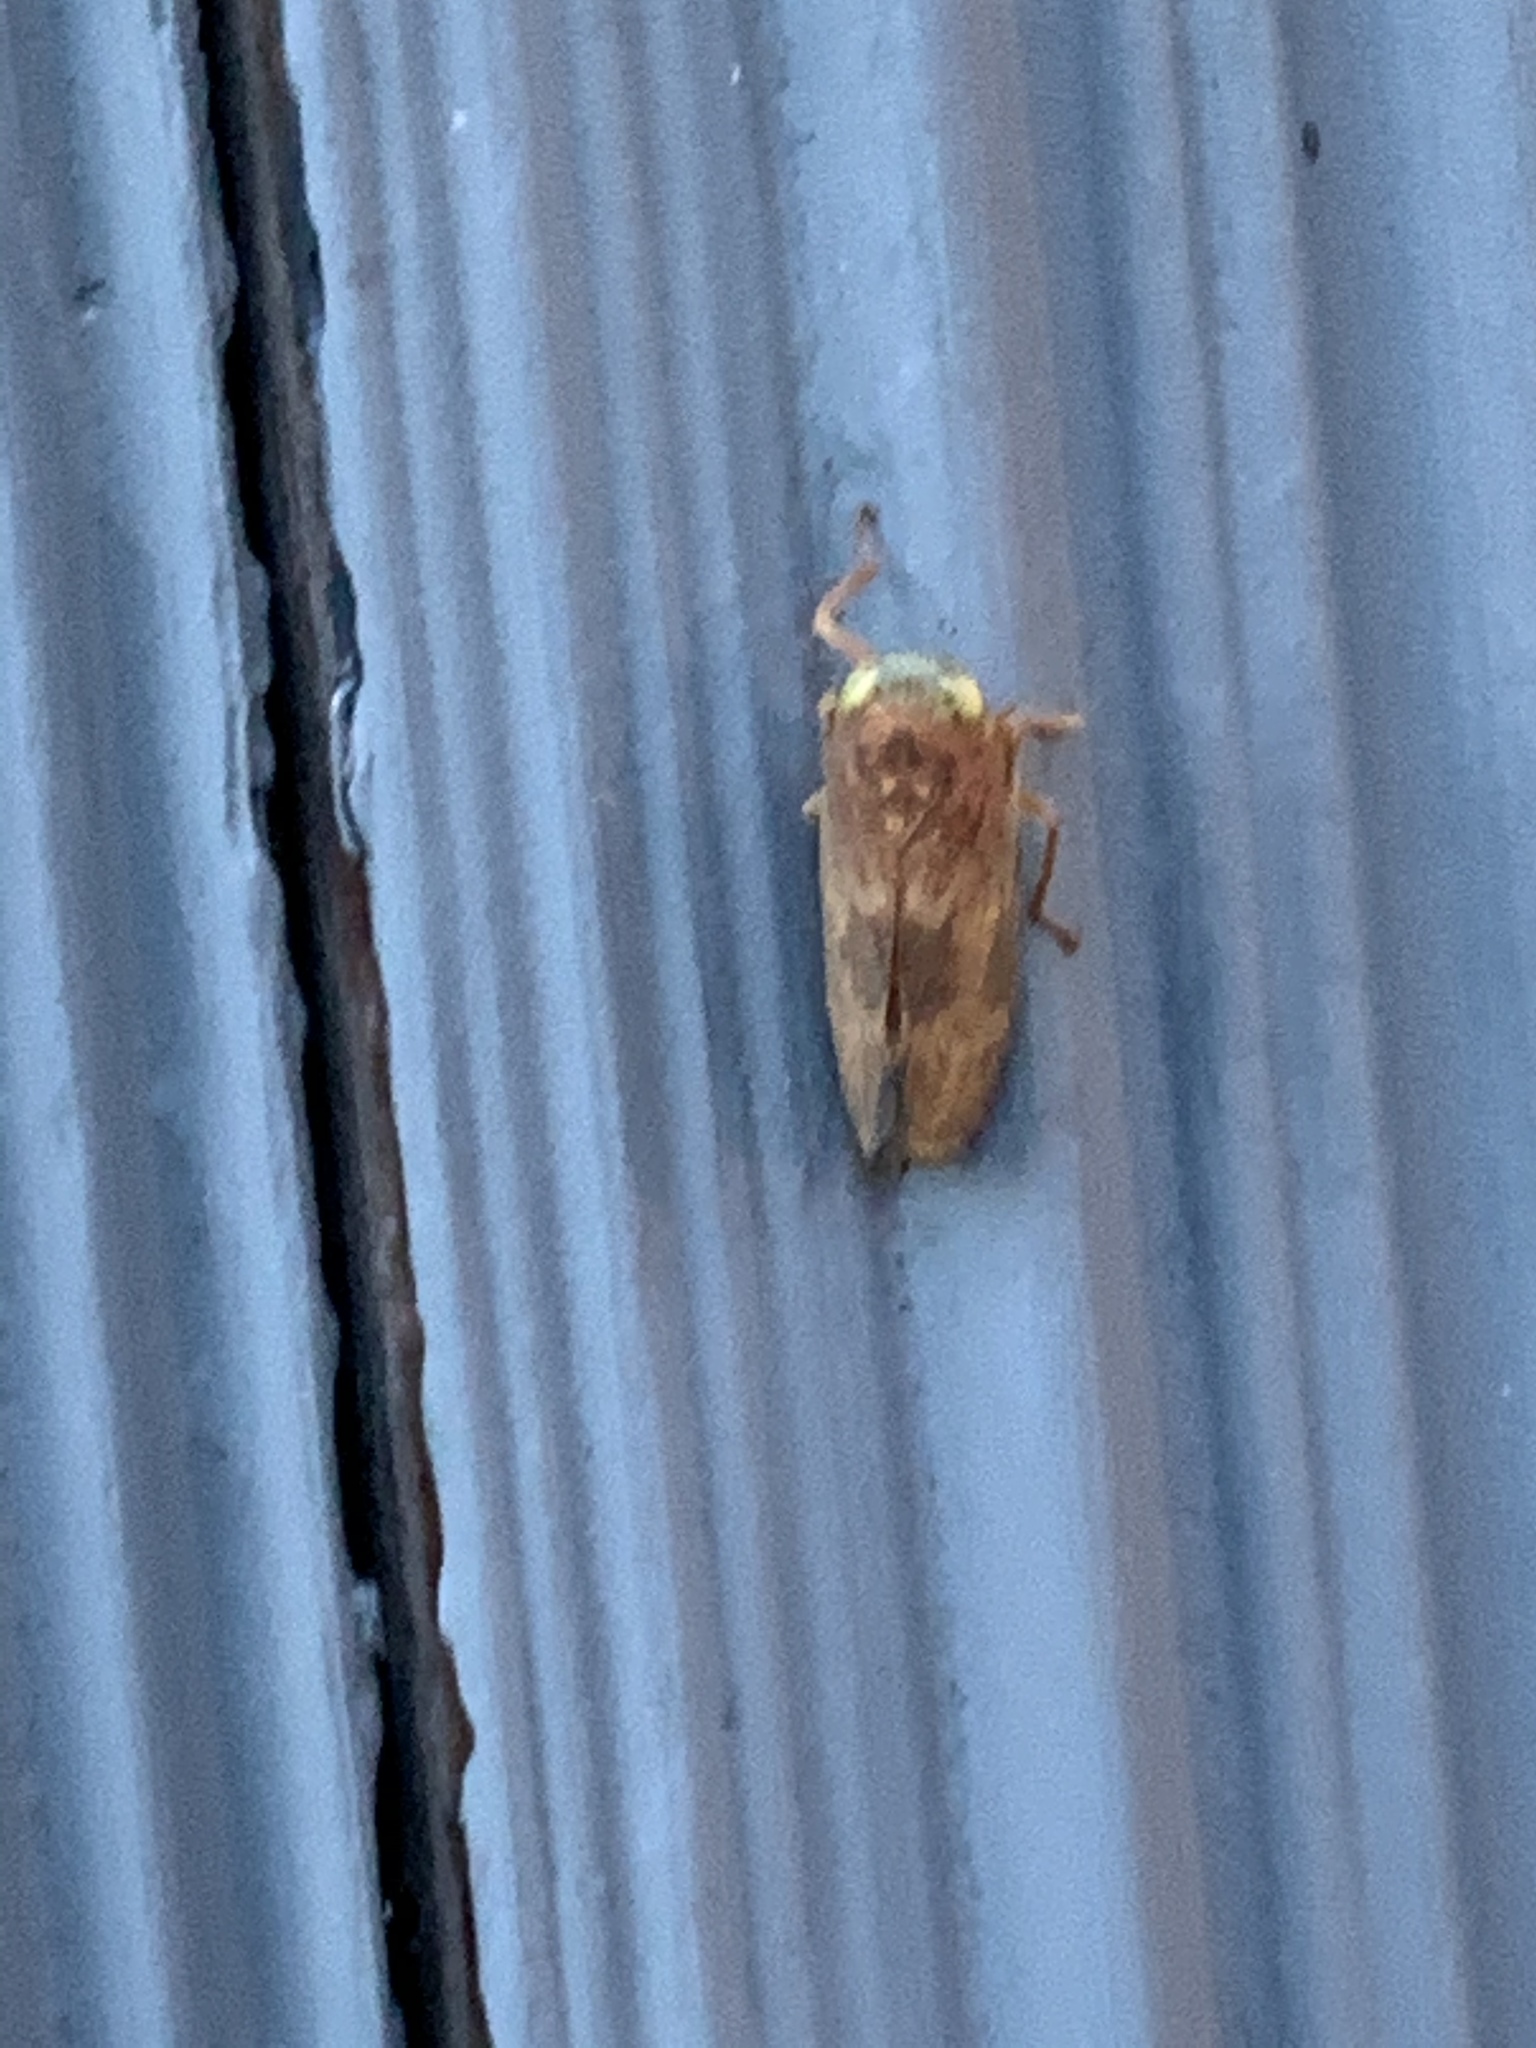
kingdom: Animalia
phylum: Arthropoda
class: Insecta
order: Hemiptera
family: Cicadellidae
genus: Jikradia
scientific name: Jikradia olitoria
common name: Coppery leafhopper
